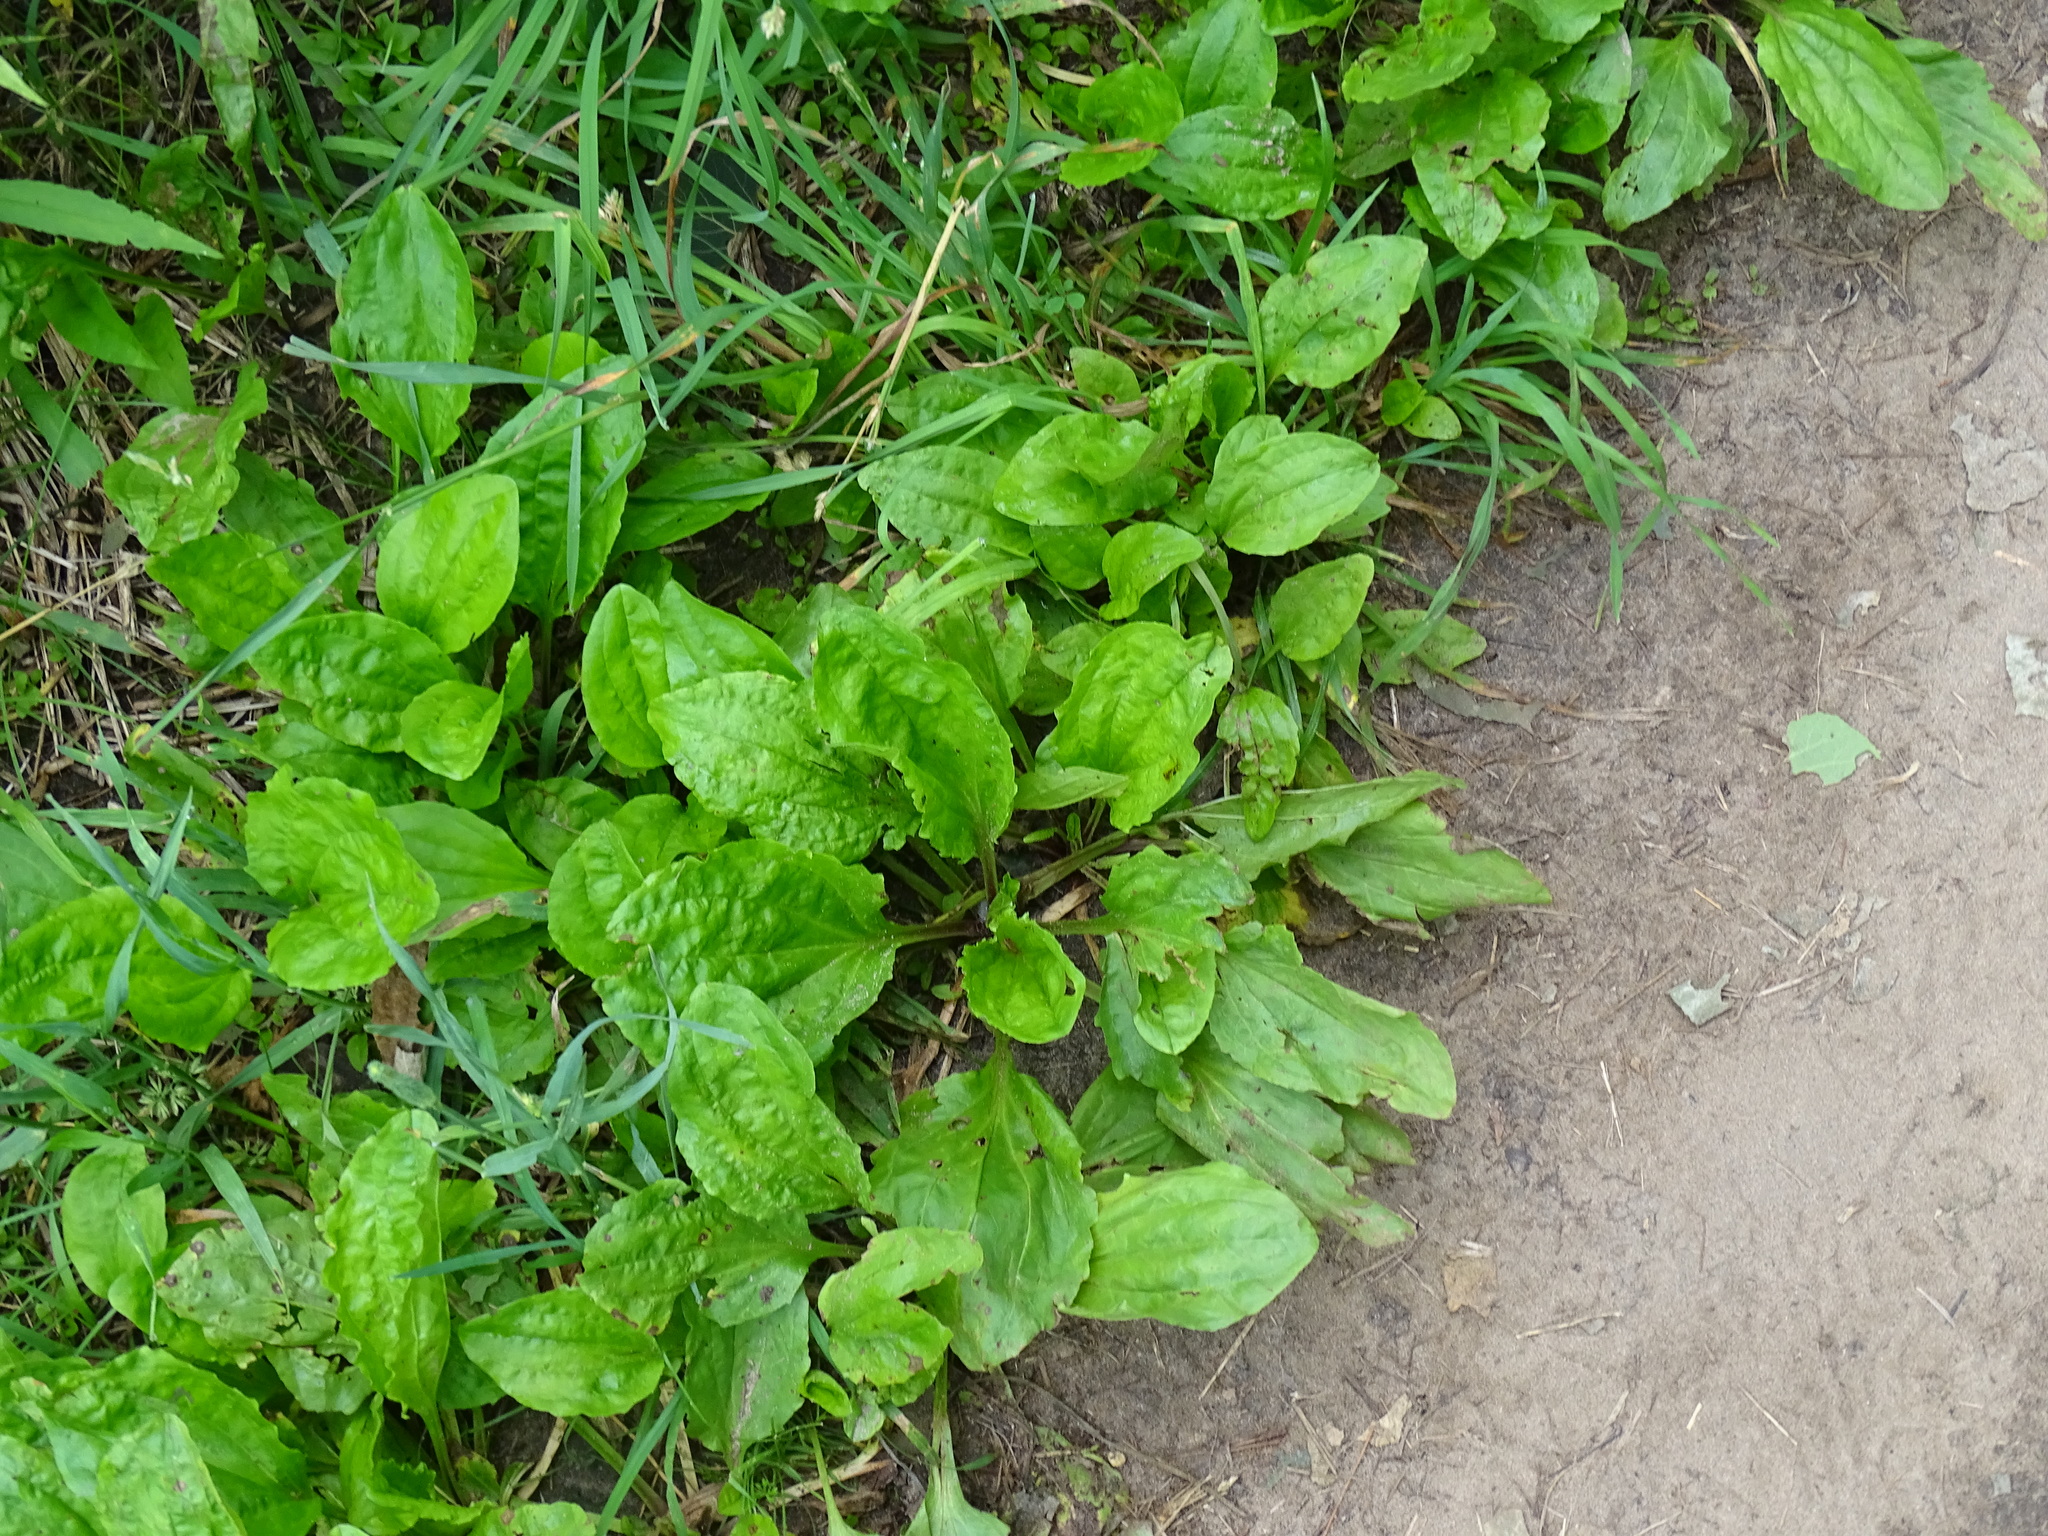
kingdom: Plantae
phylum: Tracheophyta
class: Magnoliopsida
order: Lamiales
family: Plantaginaceae
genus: Plantago
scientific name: Plantago rugelii
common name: American plantain
